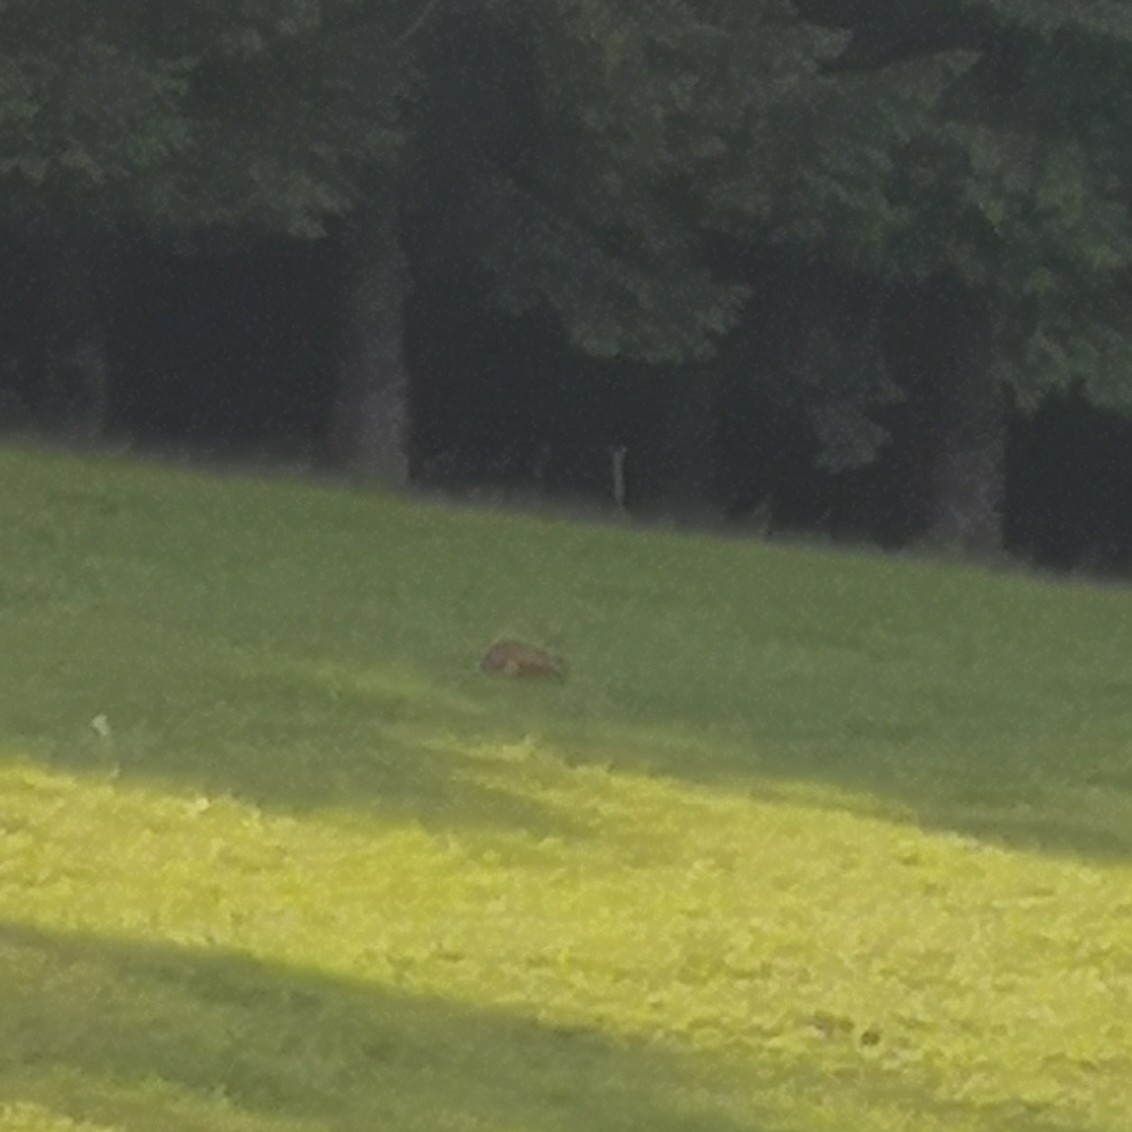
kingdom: Animalia
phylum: Chordata
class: Mammalia
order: Lagomorpha
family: Leporidae
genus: Lepus
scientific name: Lepus europaeus
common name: European hare
